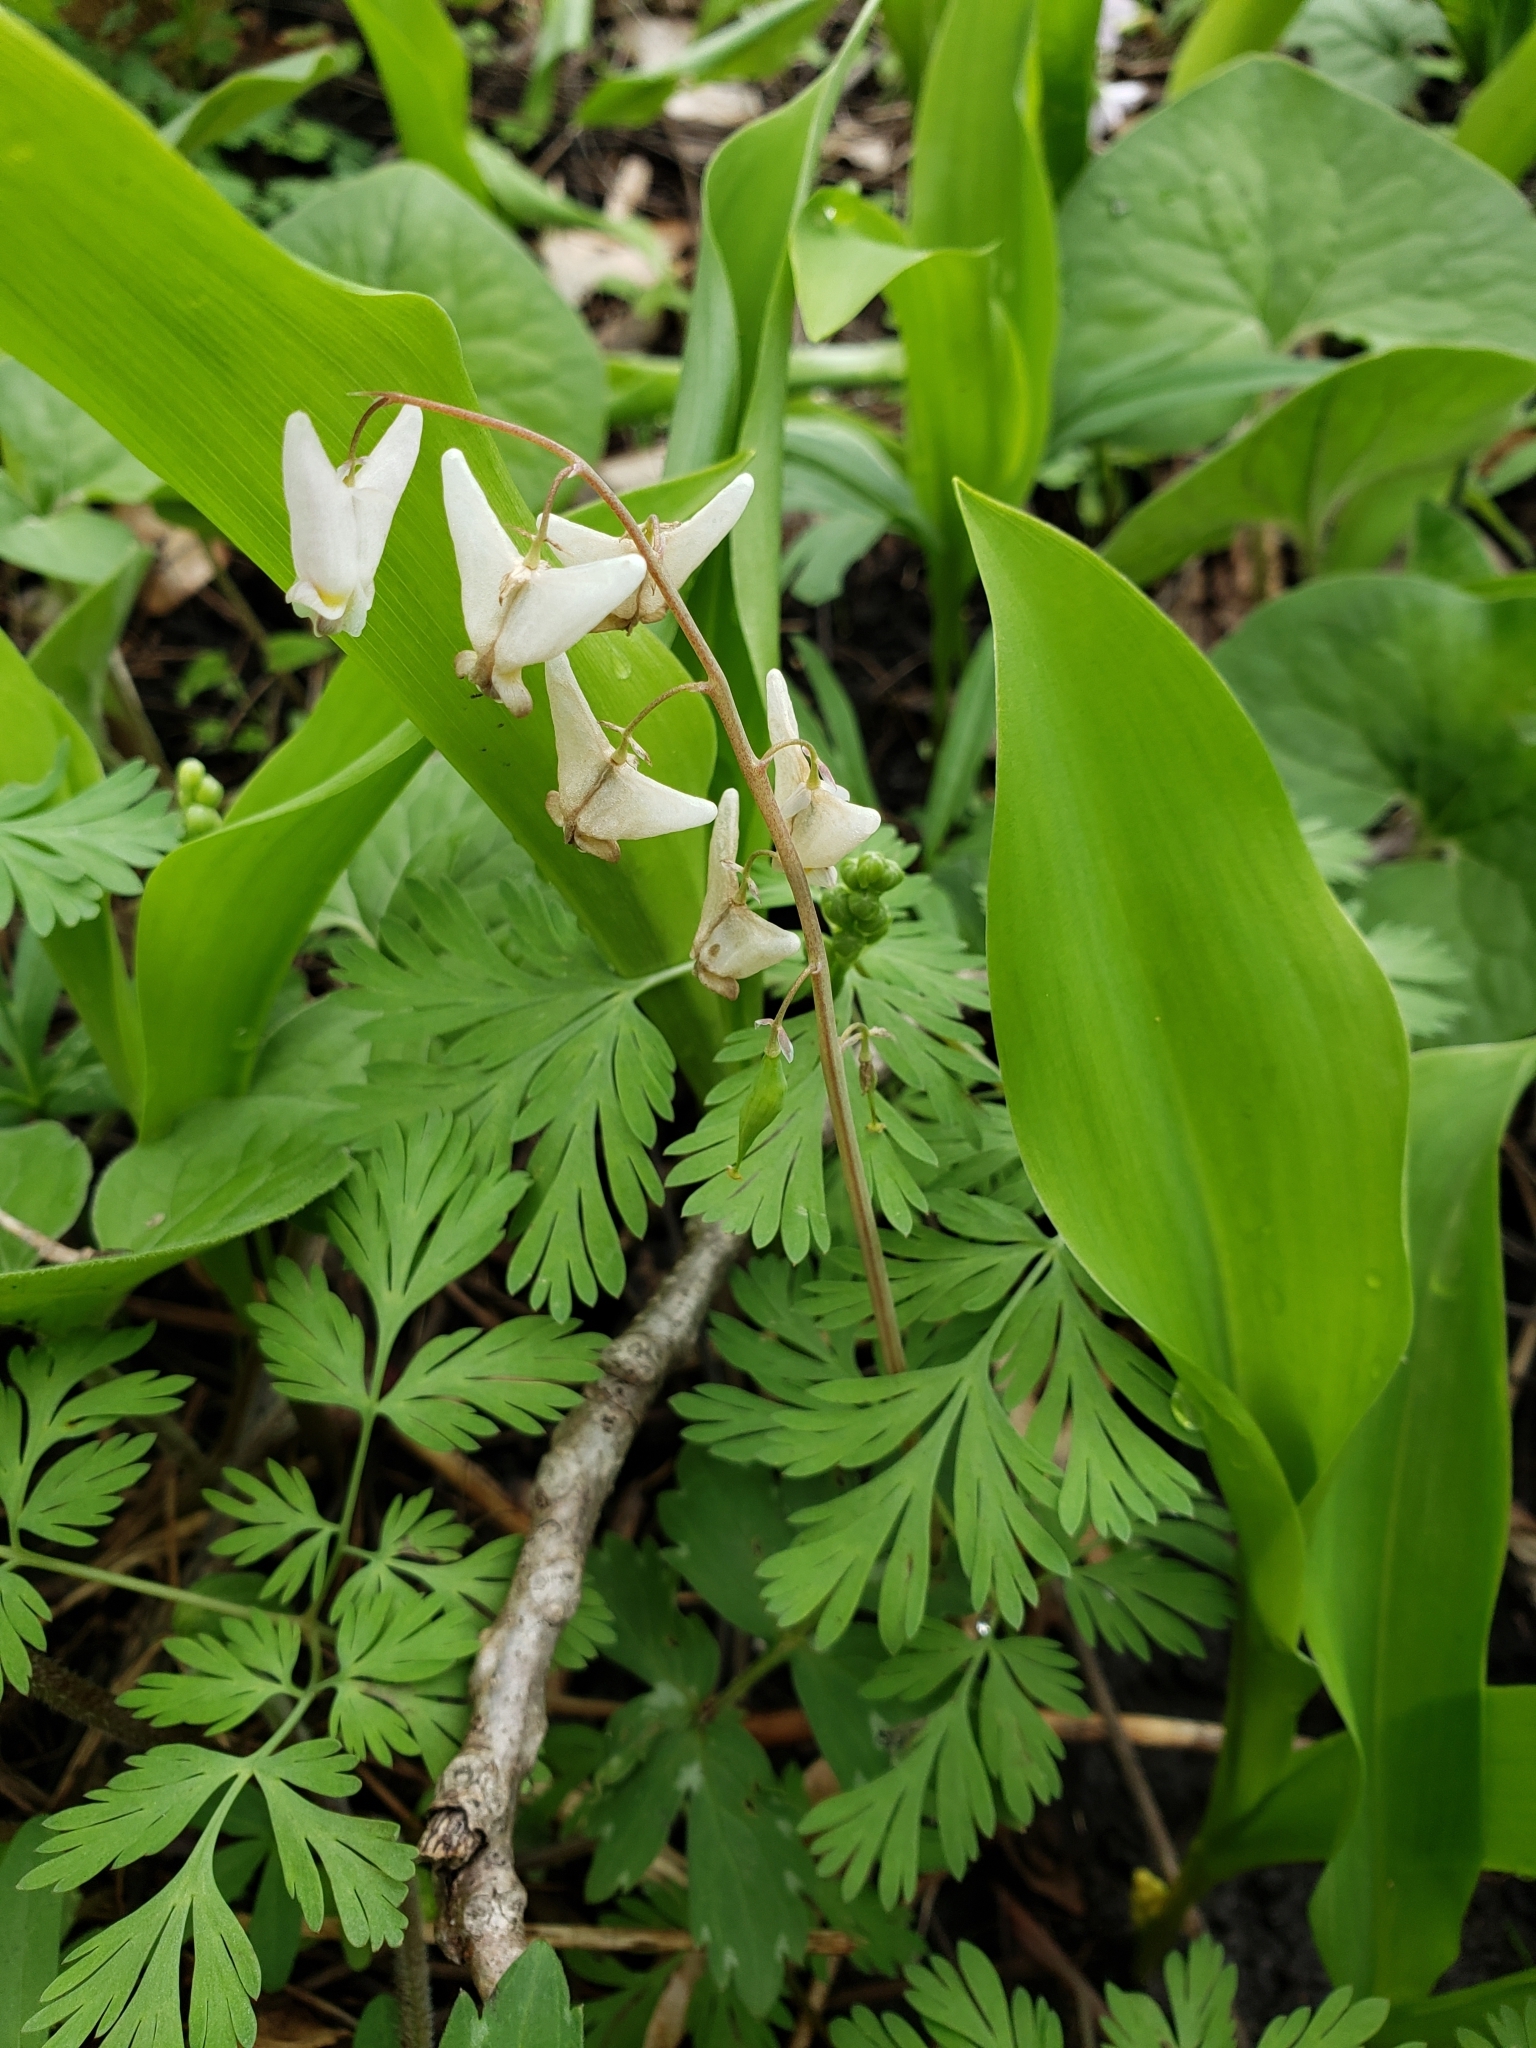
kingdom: Plantae
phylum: Tracheophyta
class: Magnoliopsida
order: Ranunculales
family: Papaveraceae
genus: Dicentra
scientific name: Dicentra cucullaria
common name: Dutchman's breeches
